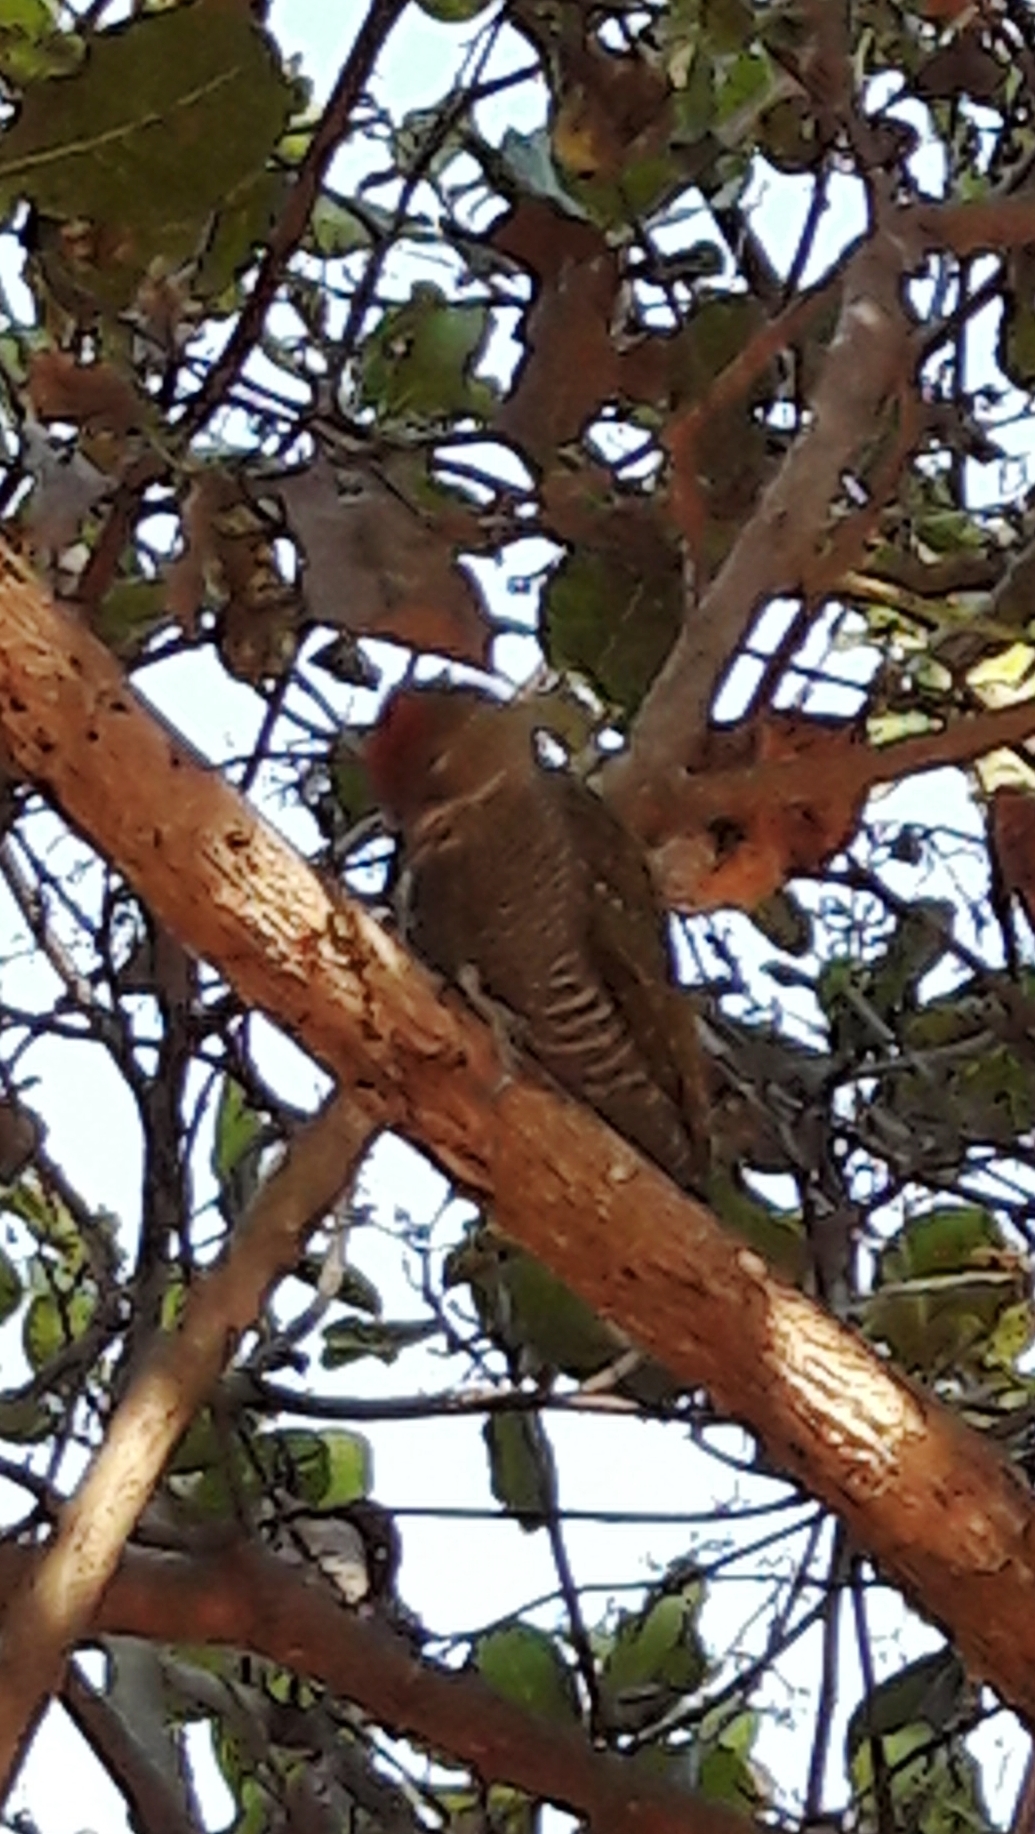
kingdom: Animalia
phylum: Chordata
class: Aves
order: Piciformes
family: Picidae
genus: Veniliornis
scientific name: Veniliornis passerinus
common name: Little woodpecker
